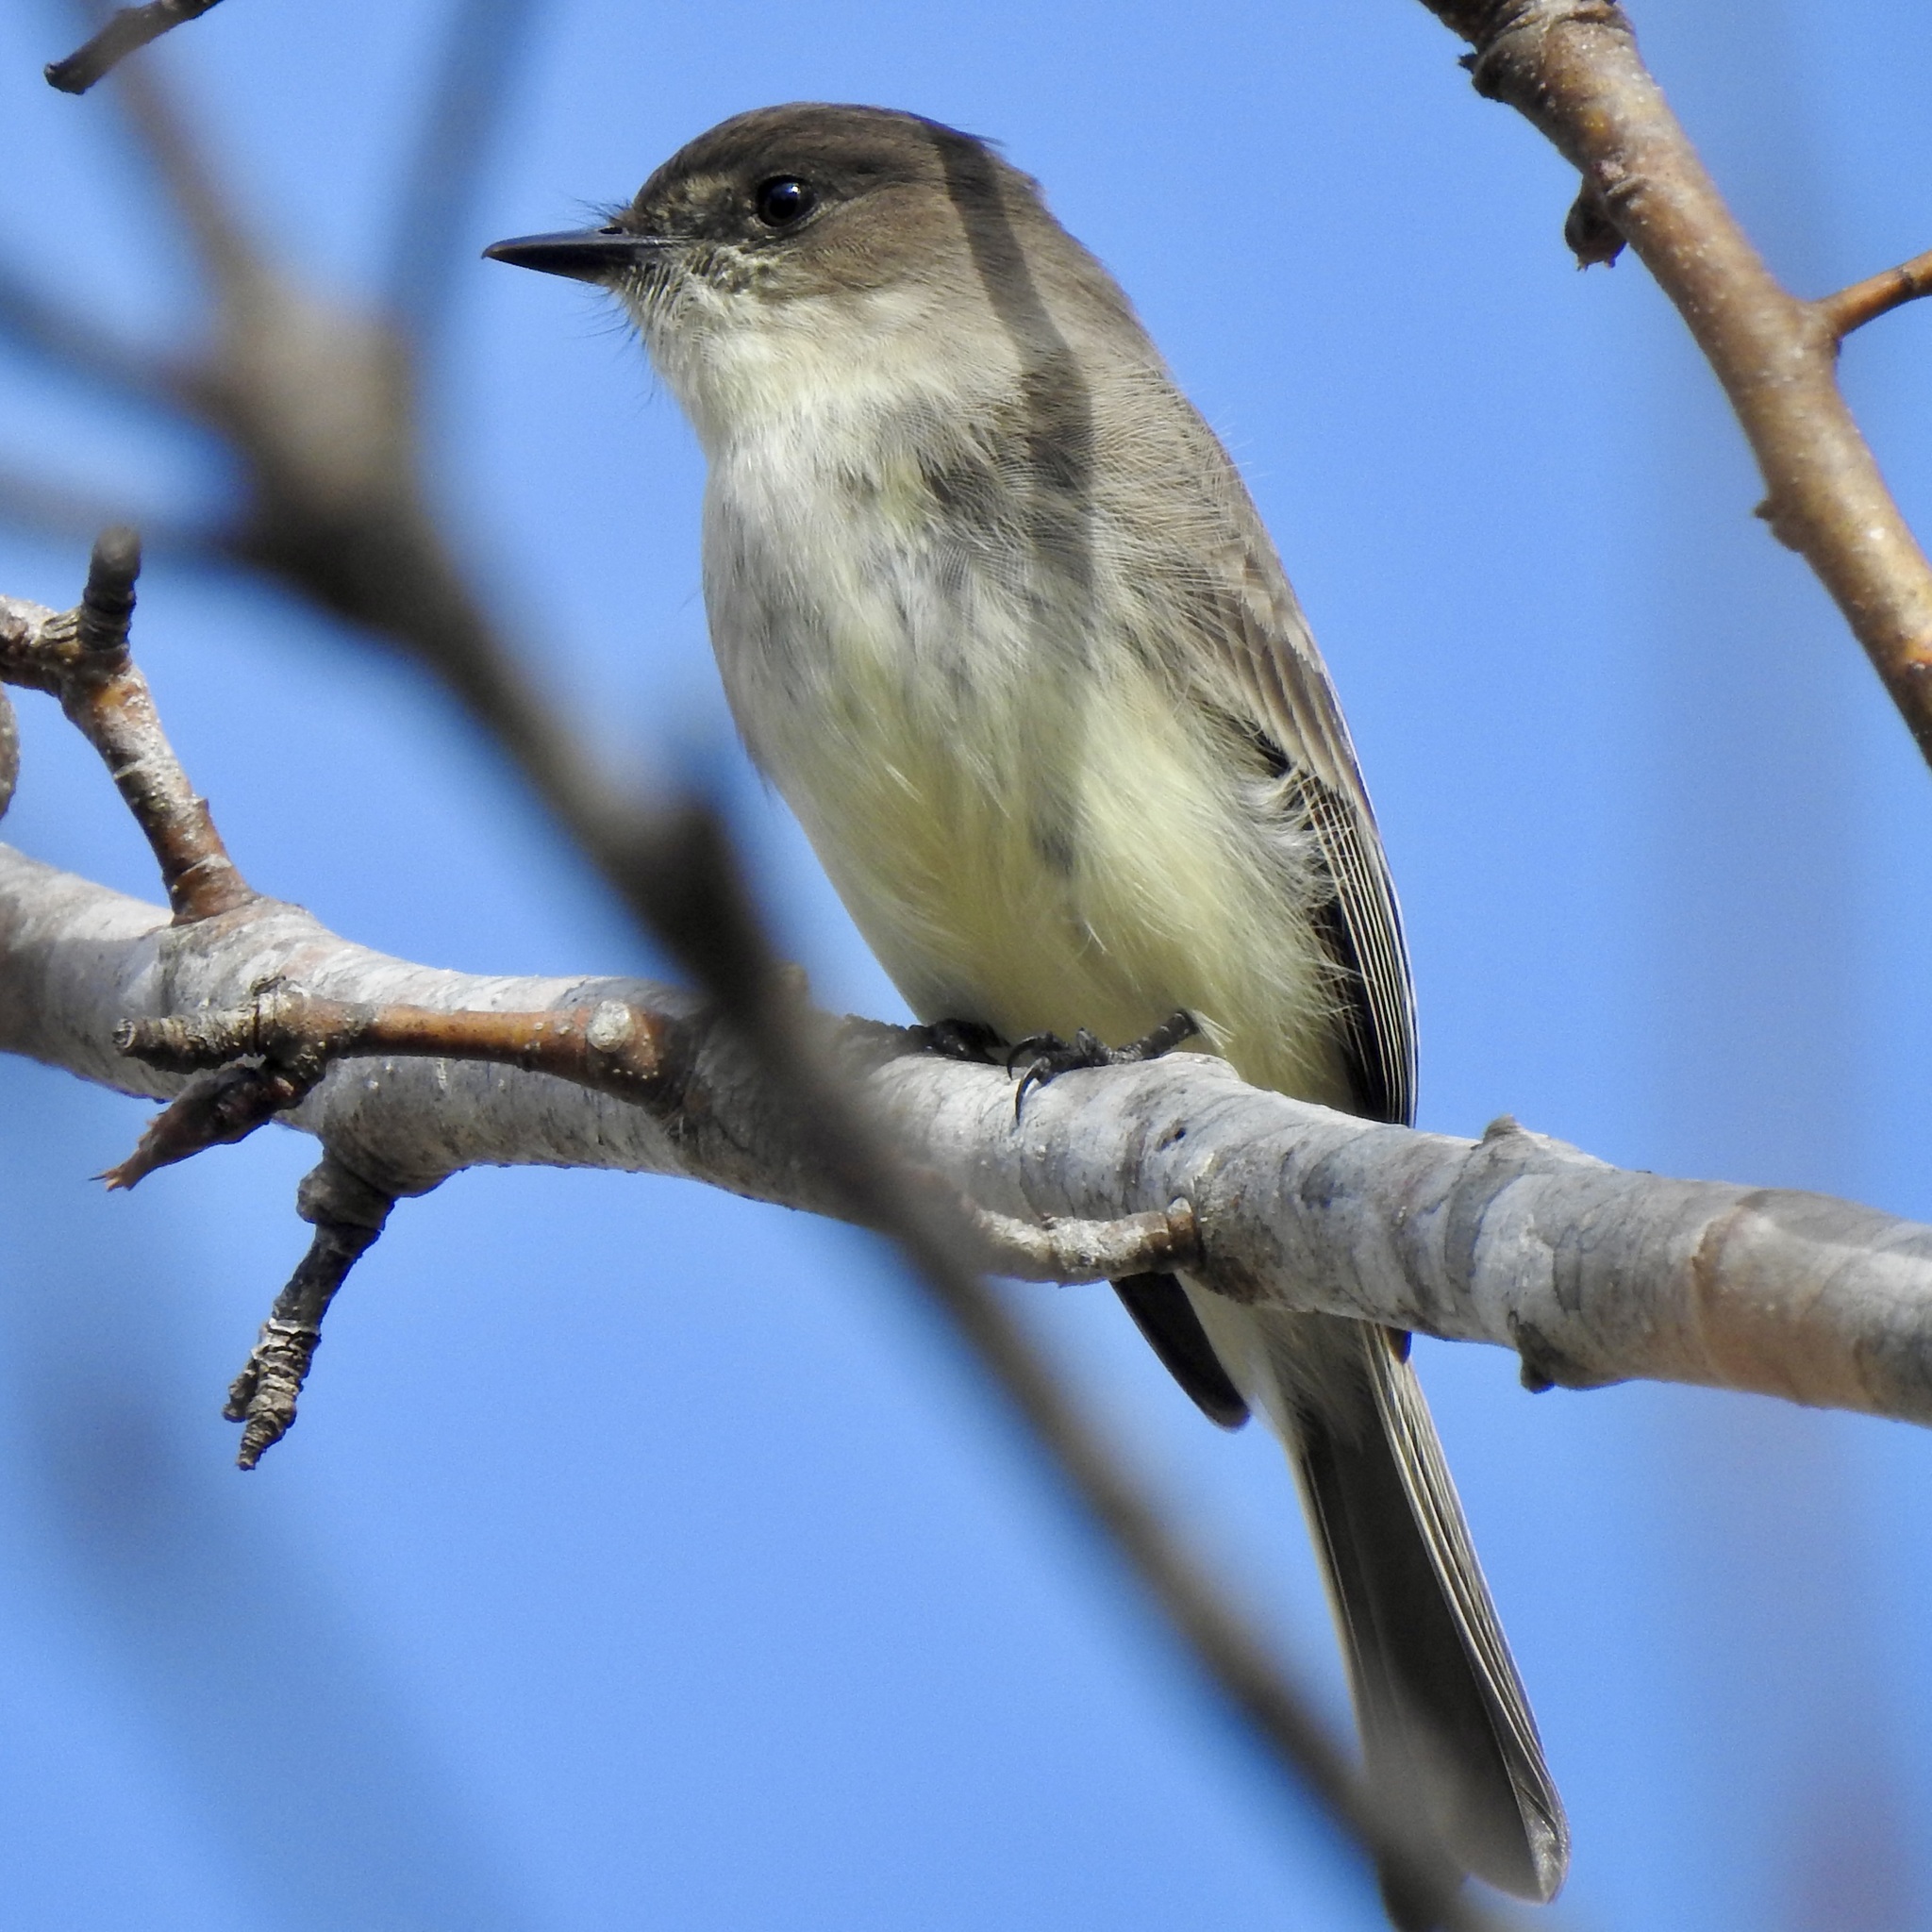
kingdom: Animalia
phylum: Chordata
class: Aves
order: Passeriformes
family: Tyrannidae
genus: Sayornis
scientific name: Sayornis phoebe
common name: Eastern phoebe
